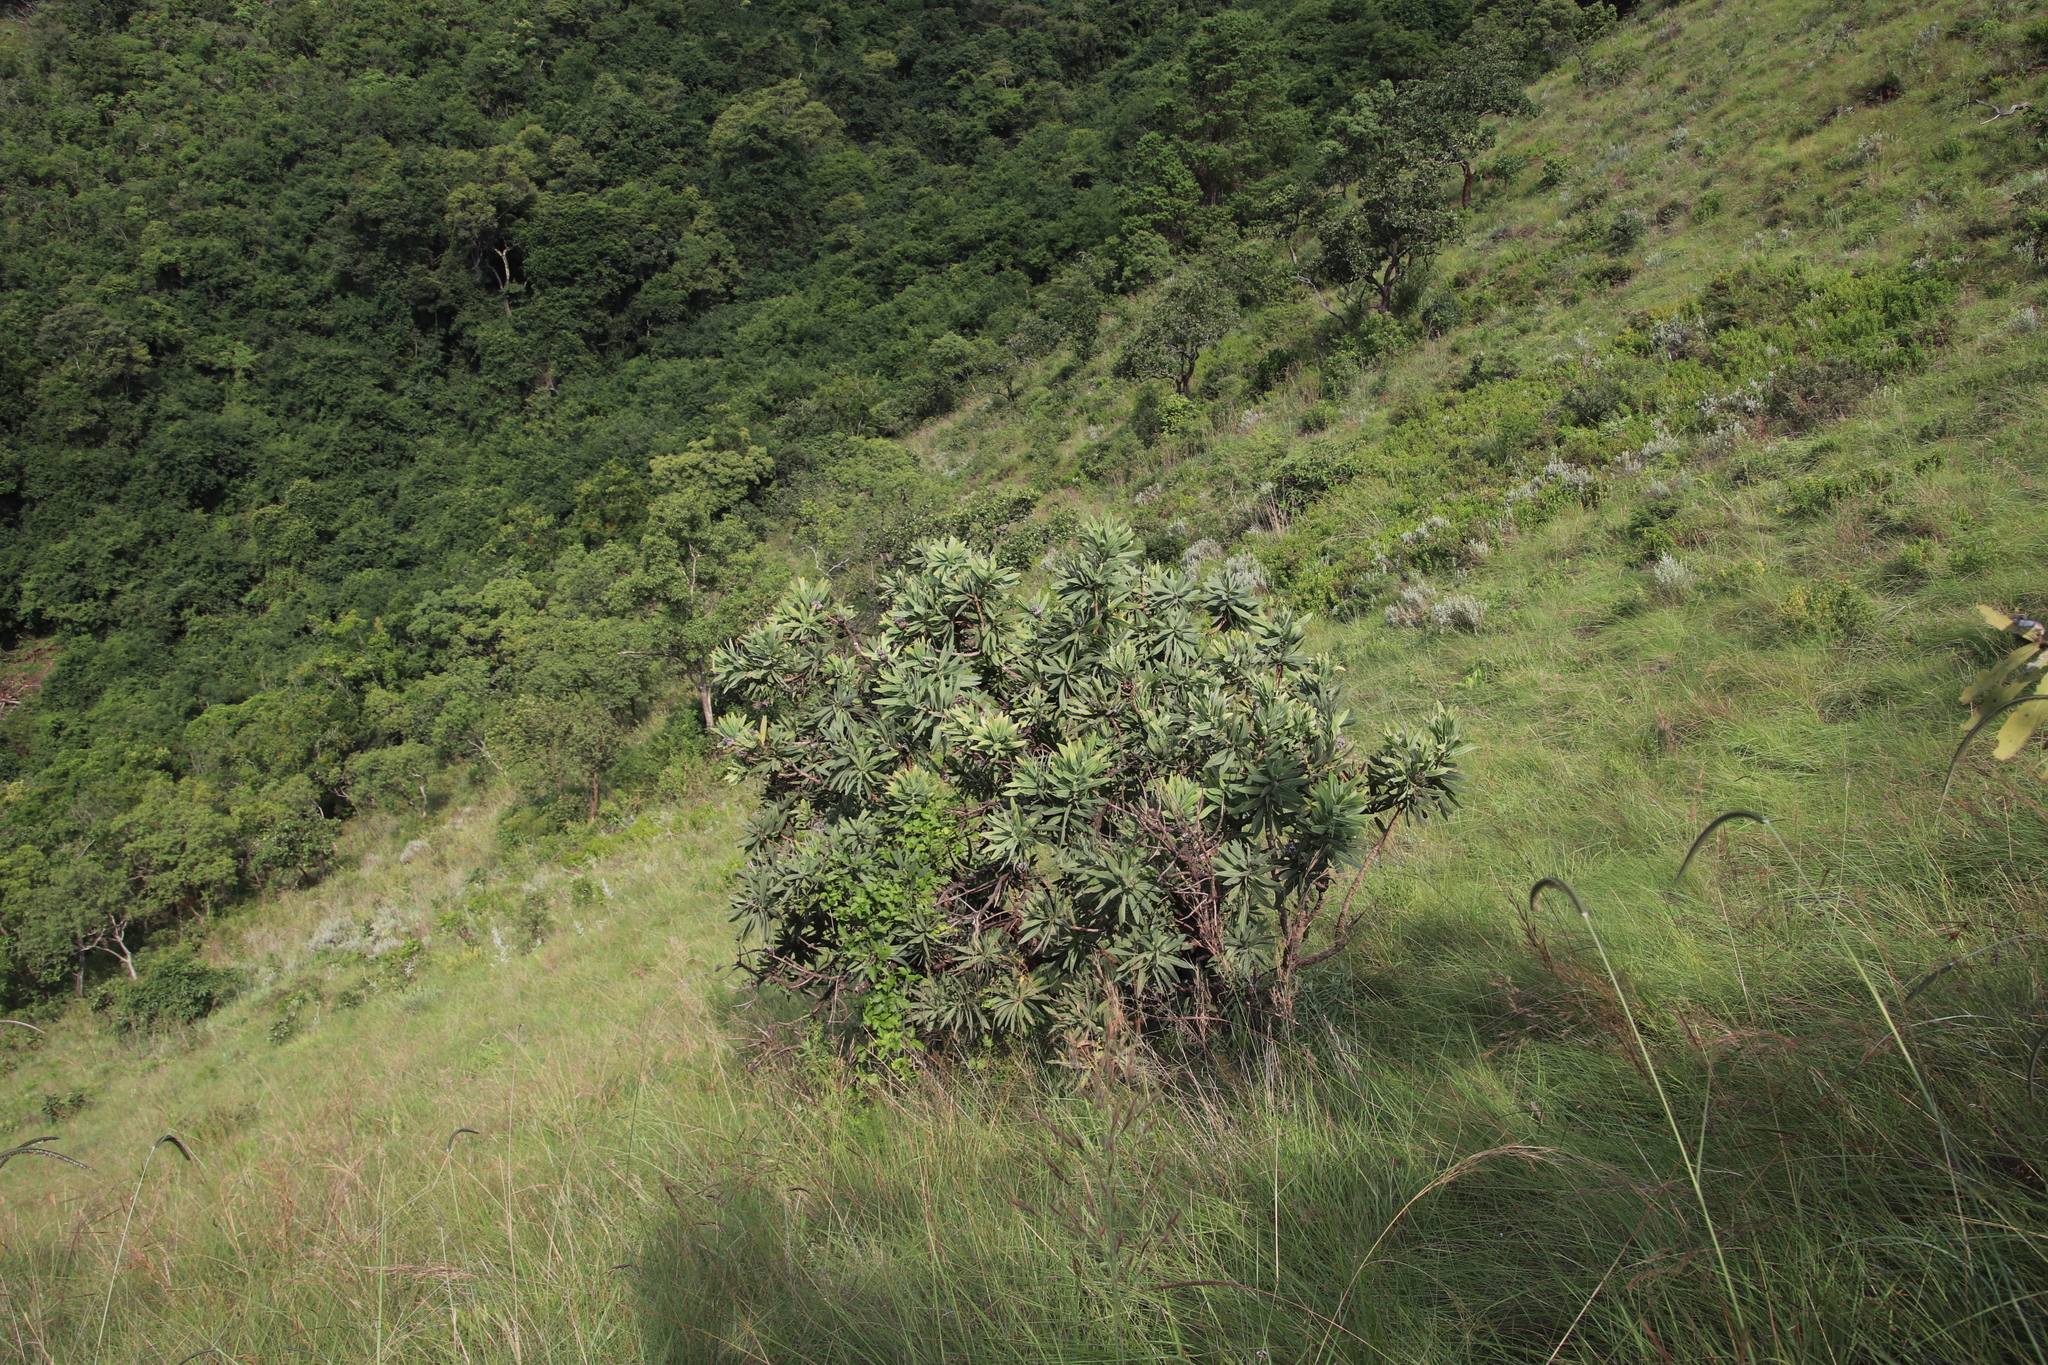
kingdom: Plantae
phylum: Tracheophyta
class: Magnoliopsida
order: Proteales
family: Proteaceae
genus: Protea
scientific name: Protea gaguedi
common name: African protea
